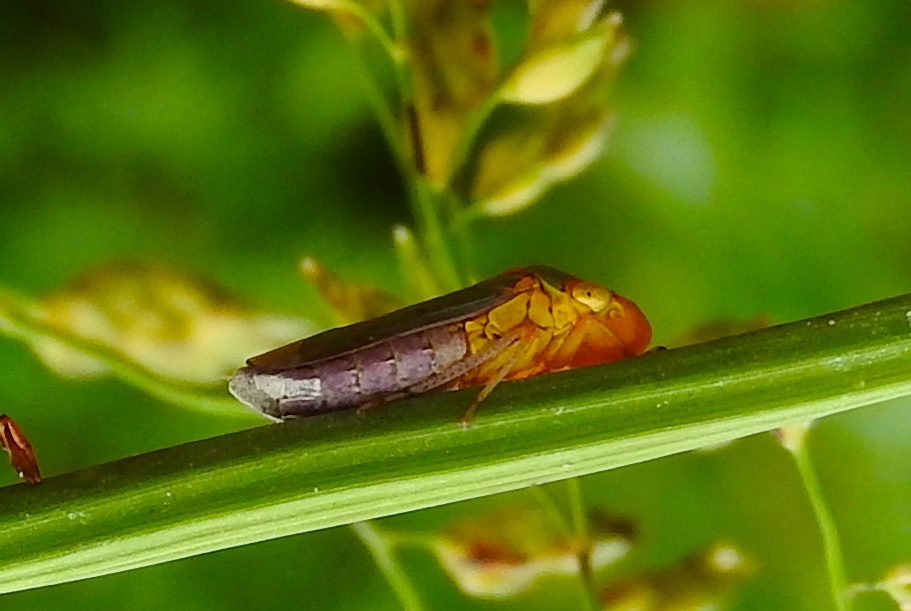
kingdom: Animalia
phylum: Arthropoda
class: Insecta
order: Hemiptera
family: Cicadellidae
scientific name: Cicadellidae
